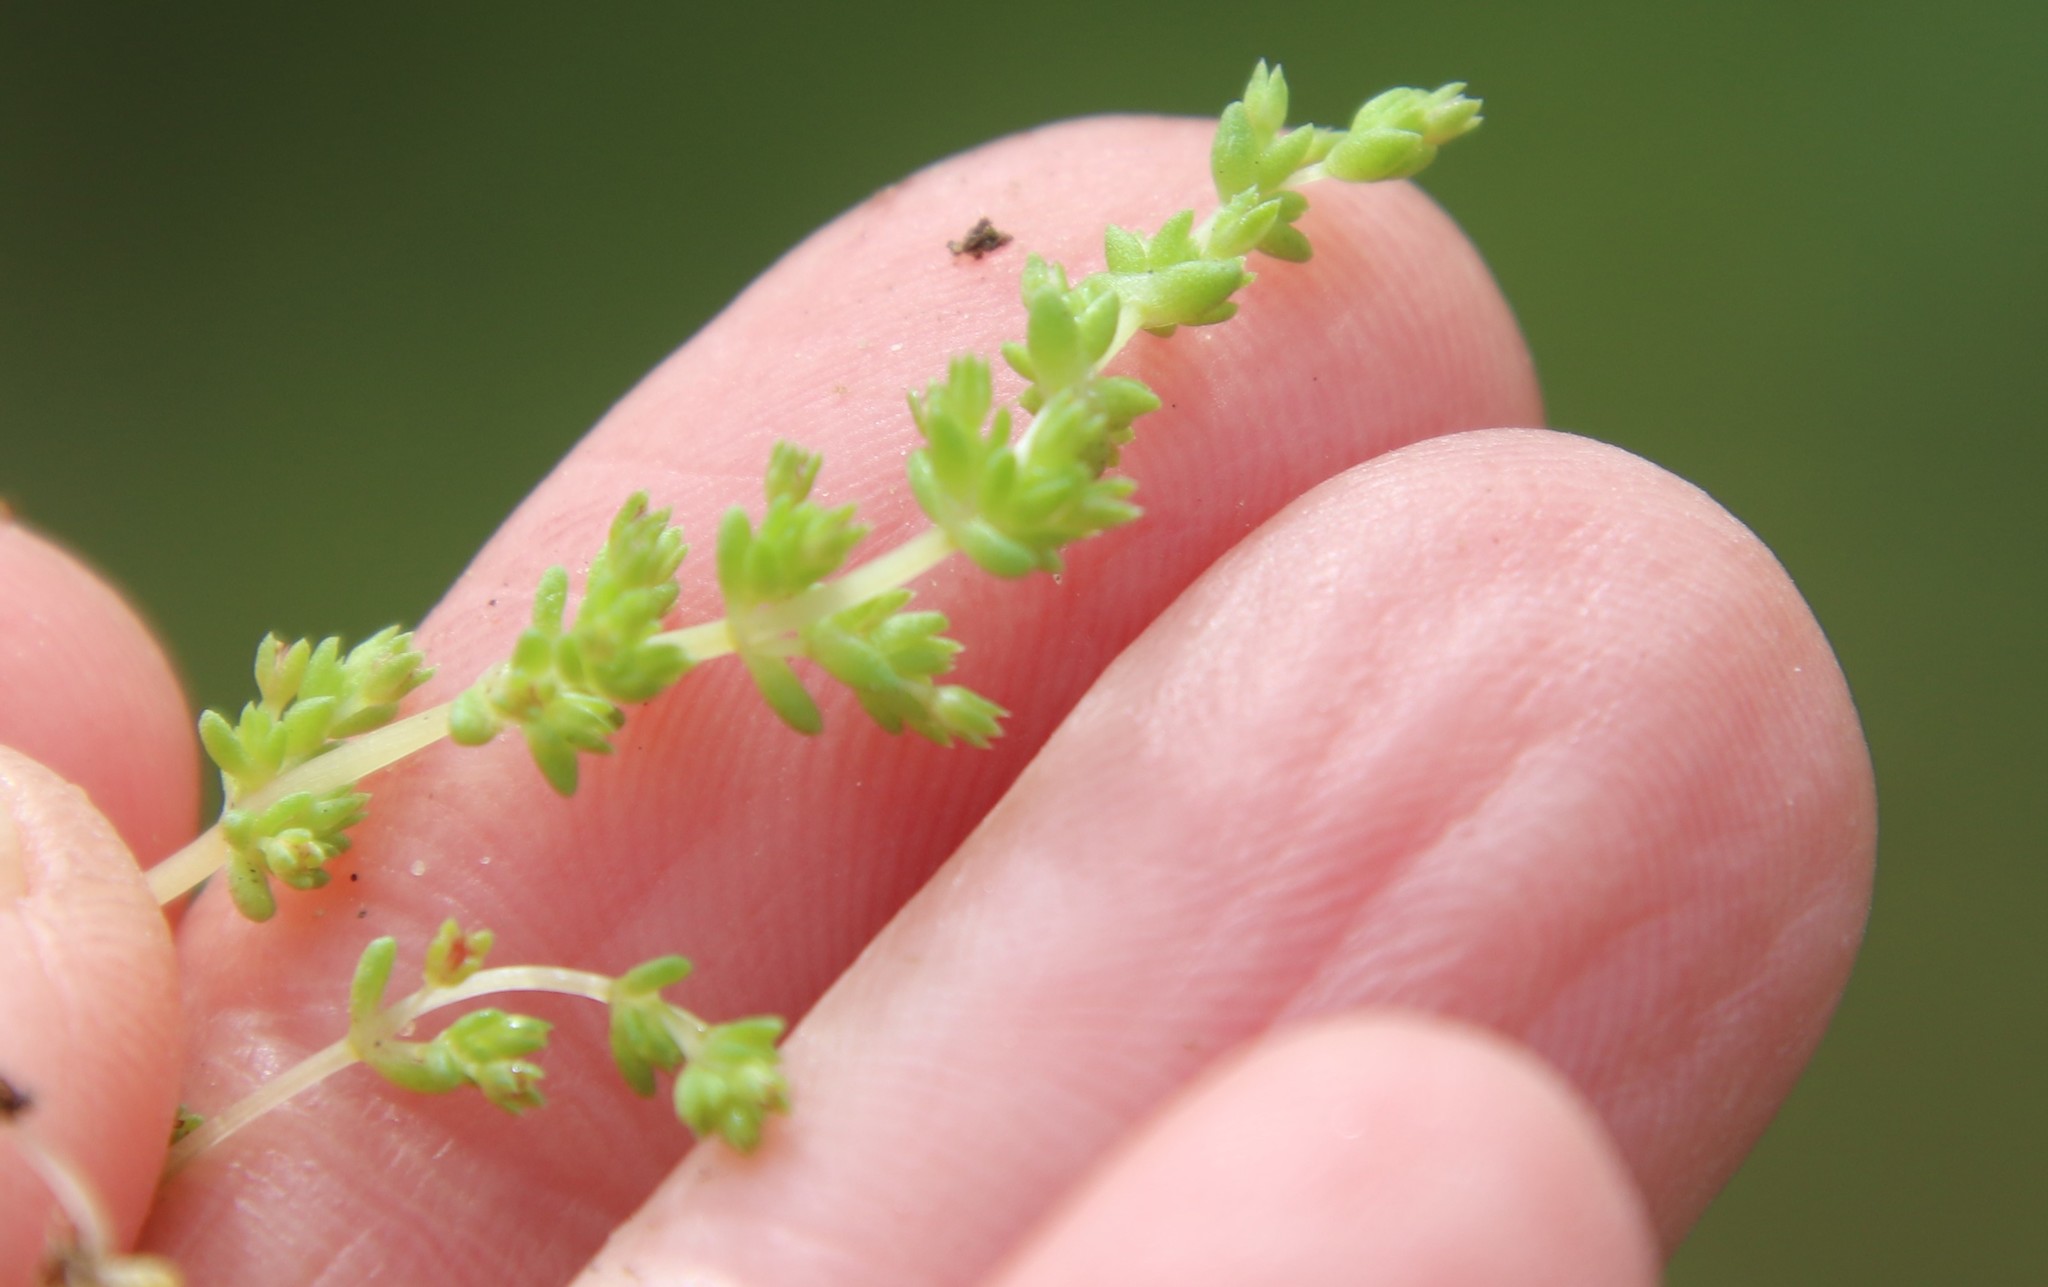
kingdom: Plantae
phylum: Tracheophyta
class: Magnoliopsida
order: Saxifragales
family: Crassulaceae
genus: Crassula
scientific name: Crassula connata
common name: Erect pygmyweed
